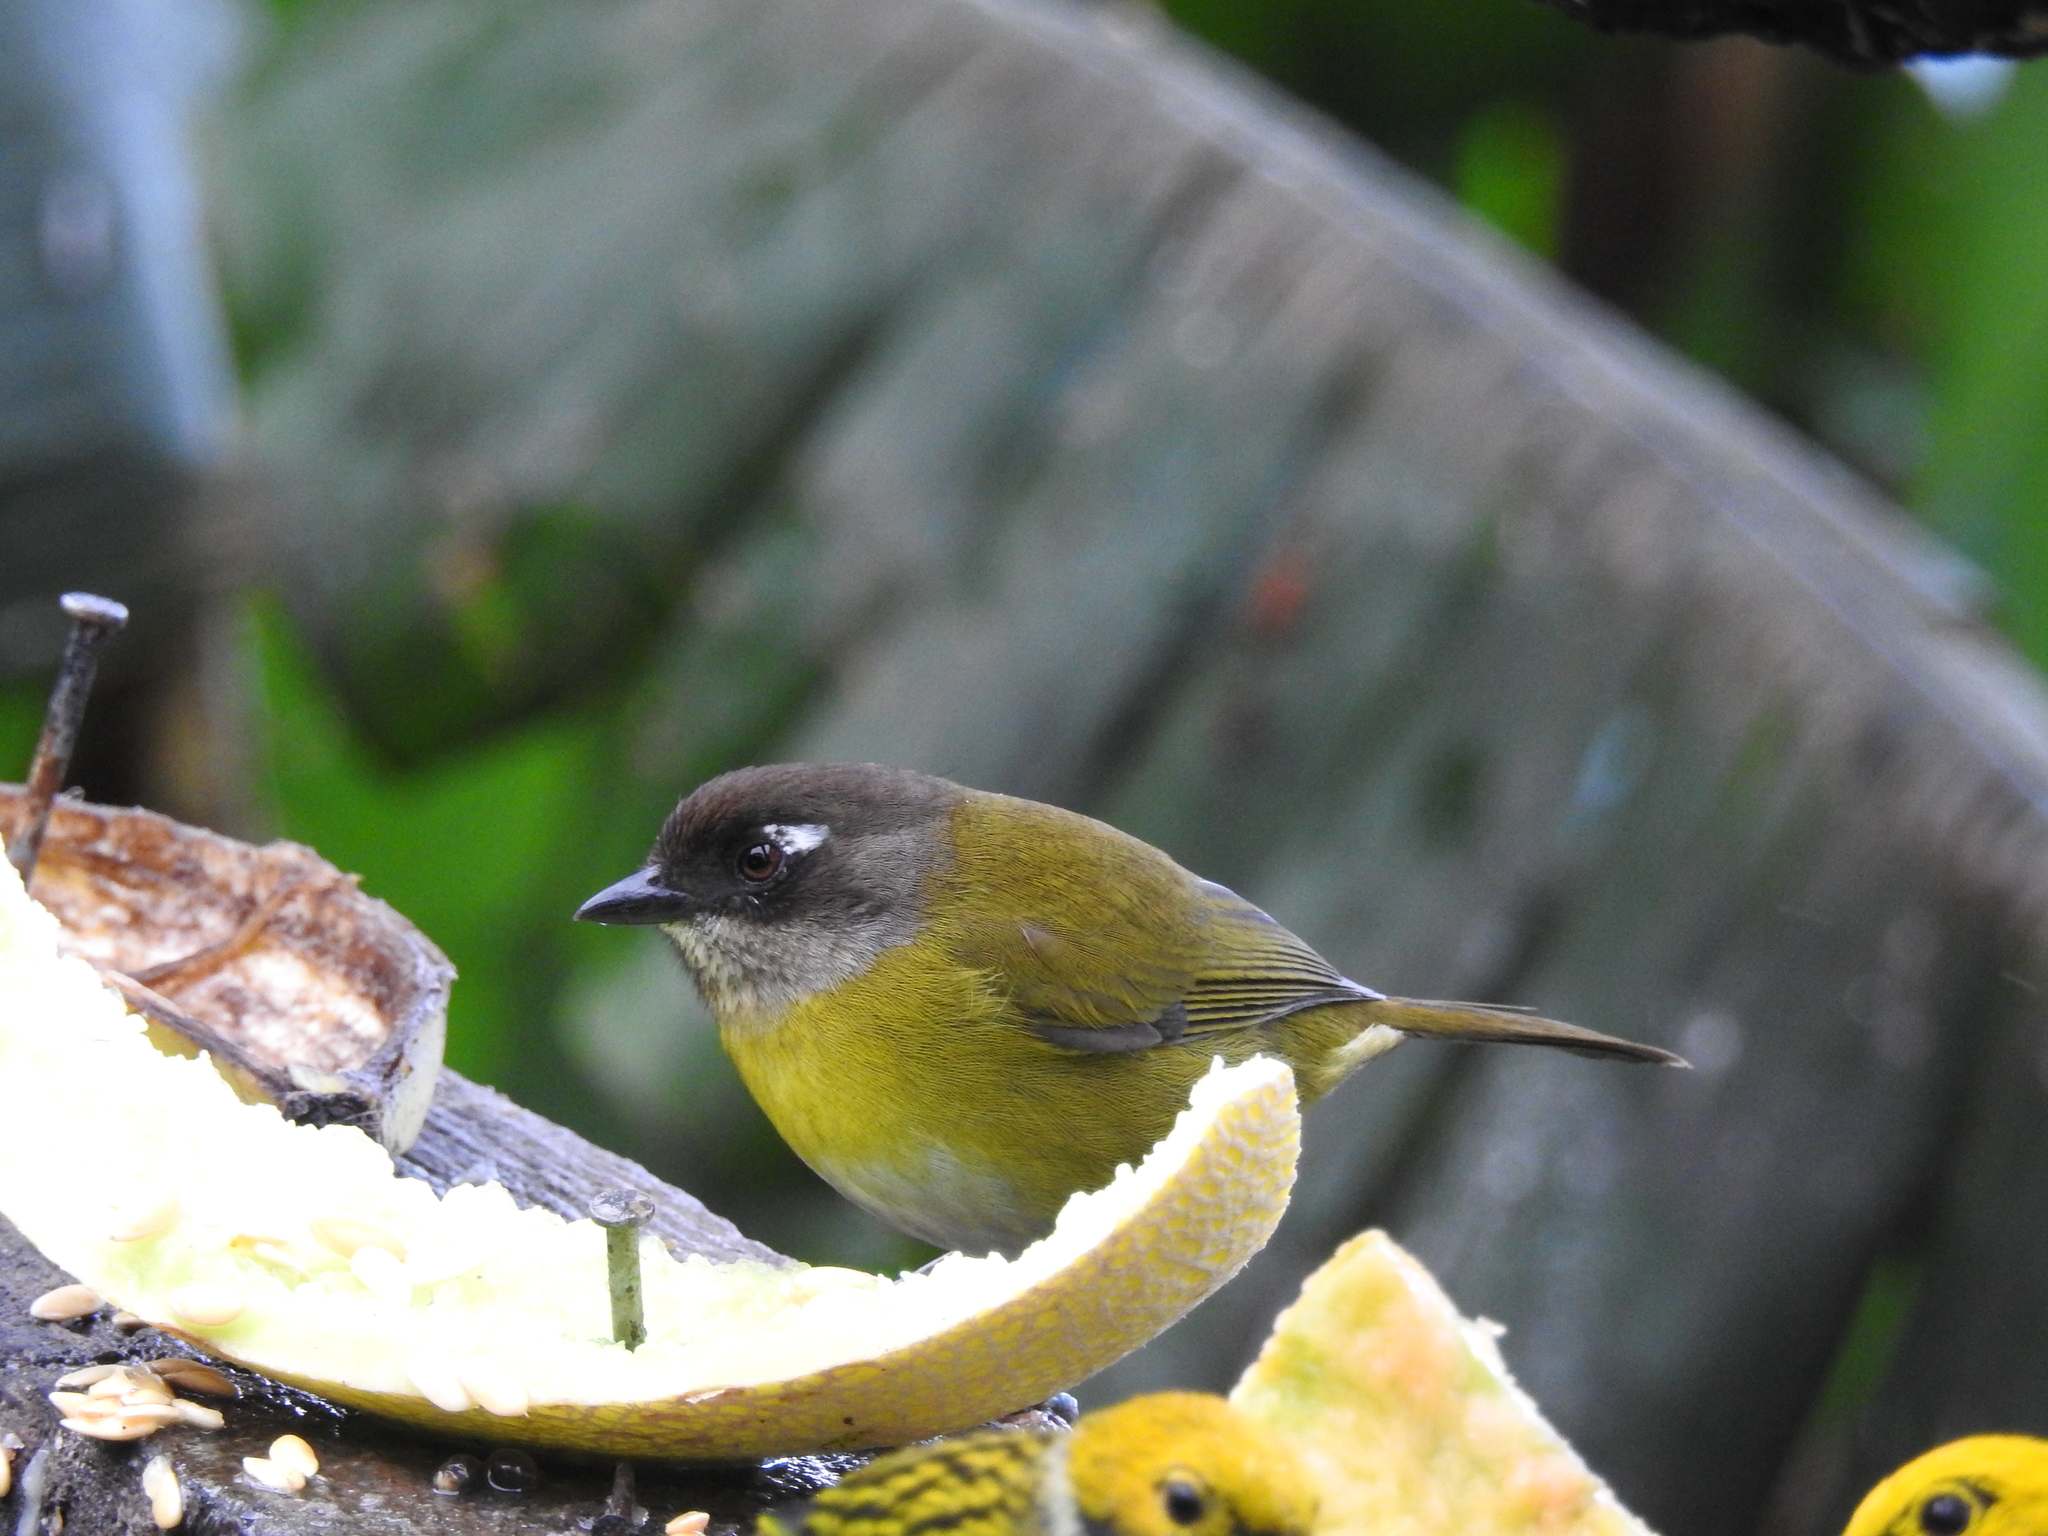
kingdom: Animalia
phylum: Chordata
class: Aves
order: Passeriformes
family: Passerellidae
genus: Chlorospingus
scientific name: Chlorospingus flavopectus
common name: Common chlorospingus
